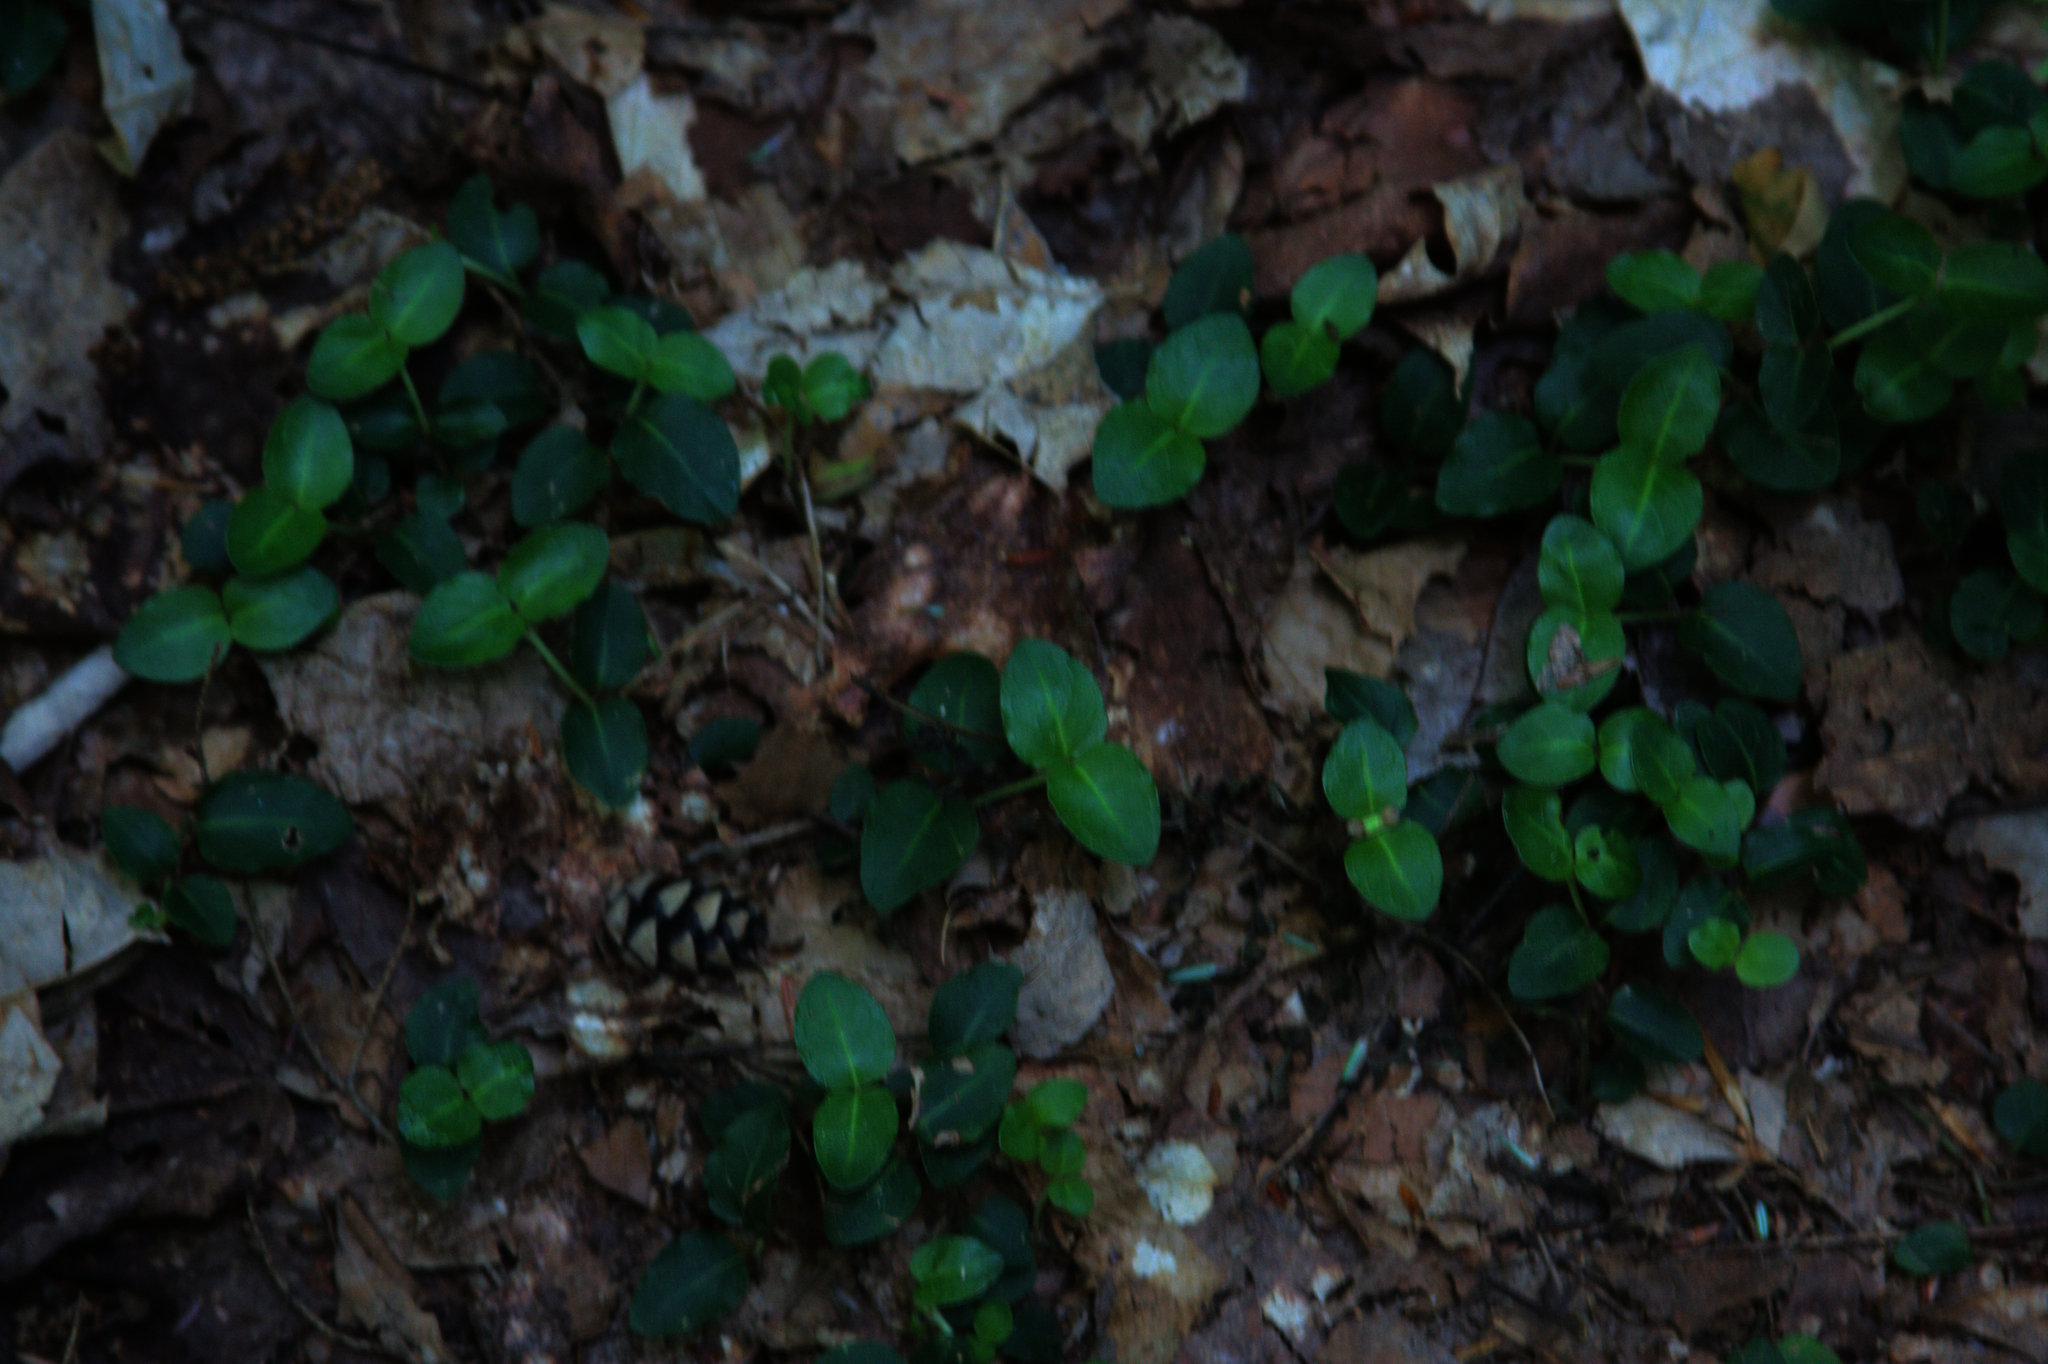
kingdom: Plantae
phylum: Tracheophyta
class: Magnoliopsida
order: Gentianales
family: Rubiaceae
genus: Mitchella
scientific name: Mitchella repens
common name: Partridge-berry
